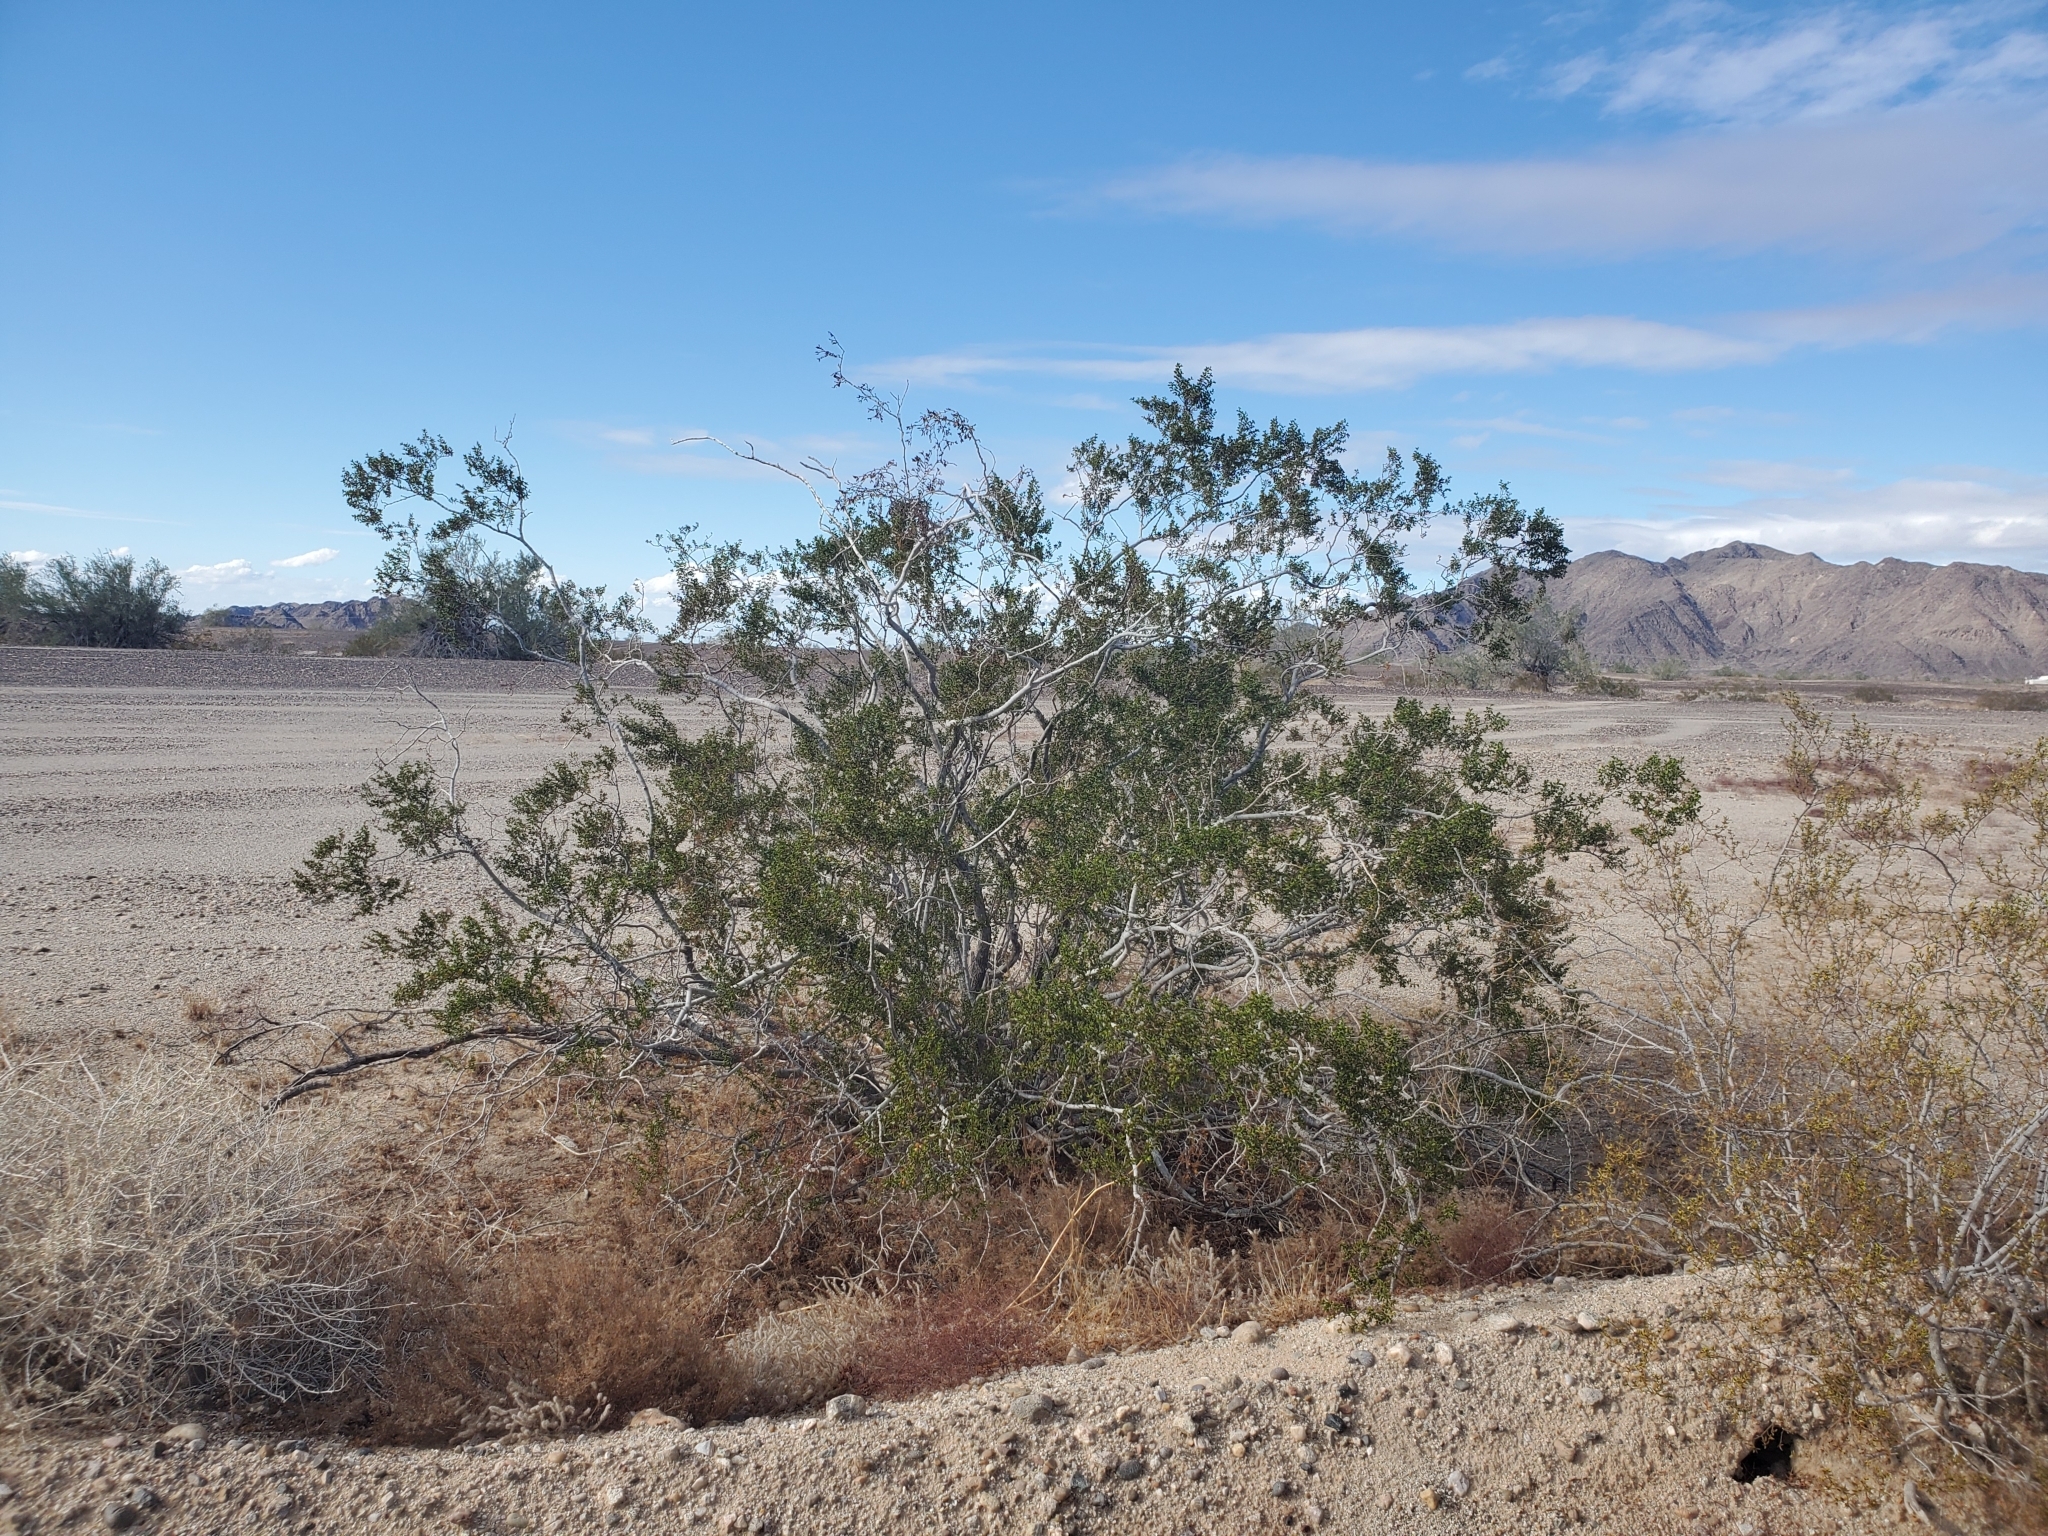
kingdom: Plantae
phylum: Tracheophyta
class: Magnoliopsida
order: Zygophyllales
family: Zygophyllaceae
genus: Larrea
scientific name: Larrea tridentata
